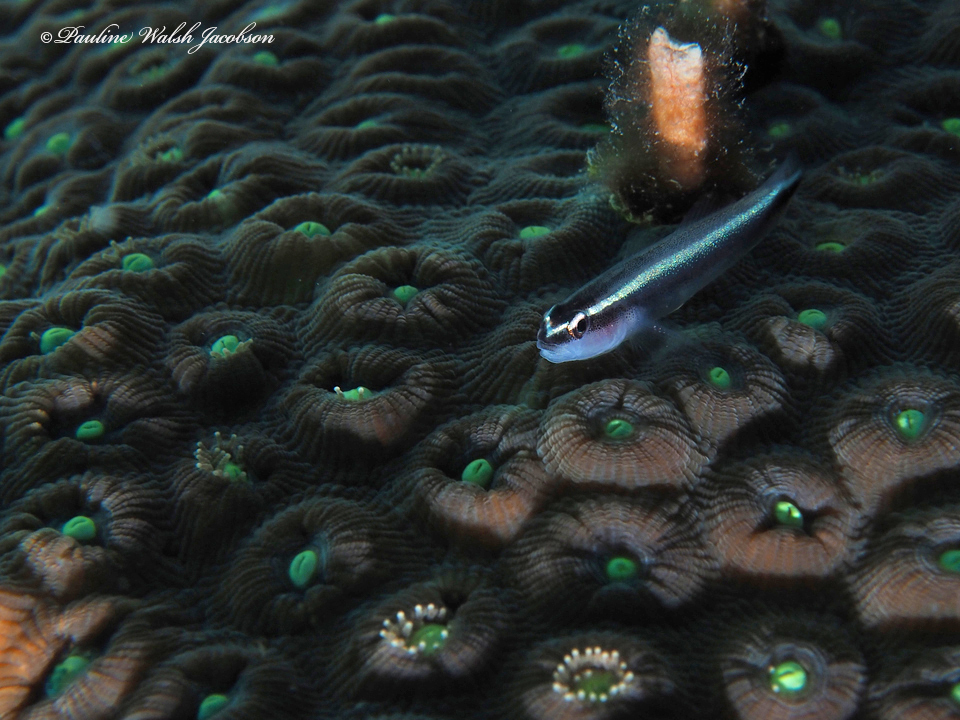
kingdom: Animalia
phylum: Chordata
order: Perciformes
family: Gobiidae
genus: Elacatinus
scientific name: Elacatinus prochilos
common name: Broadstripe goby
